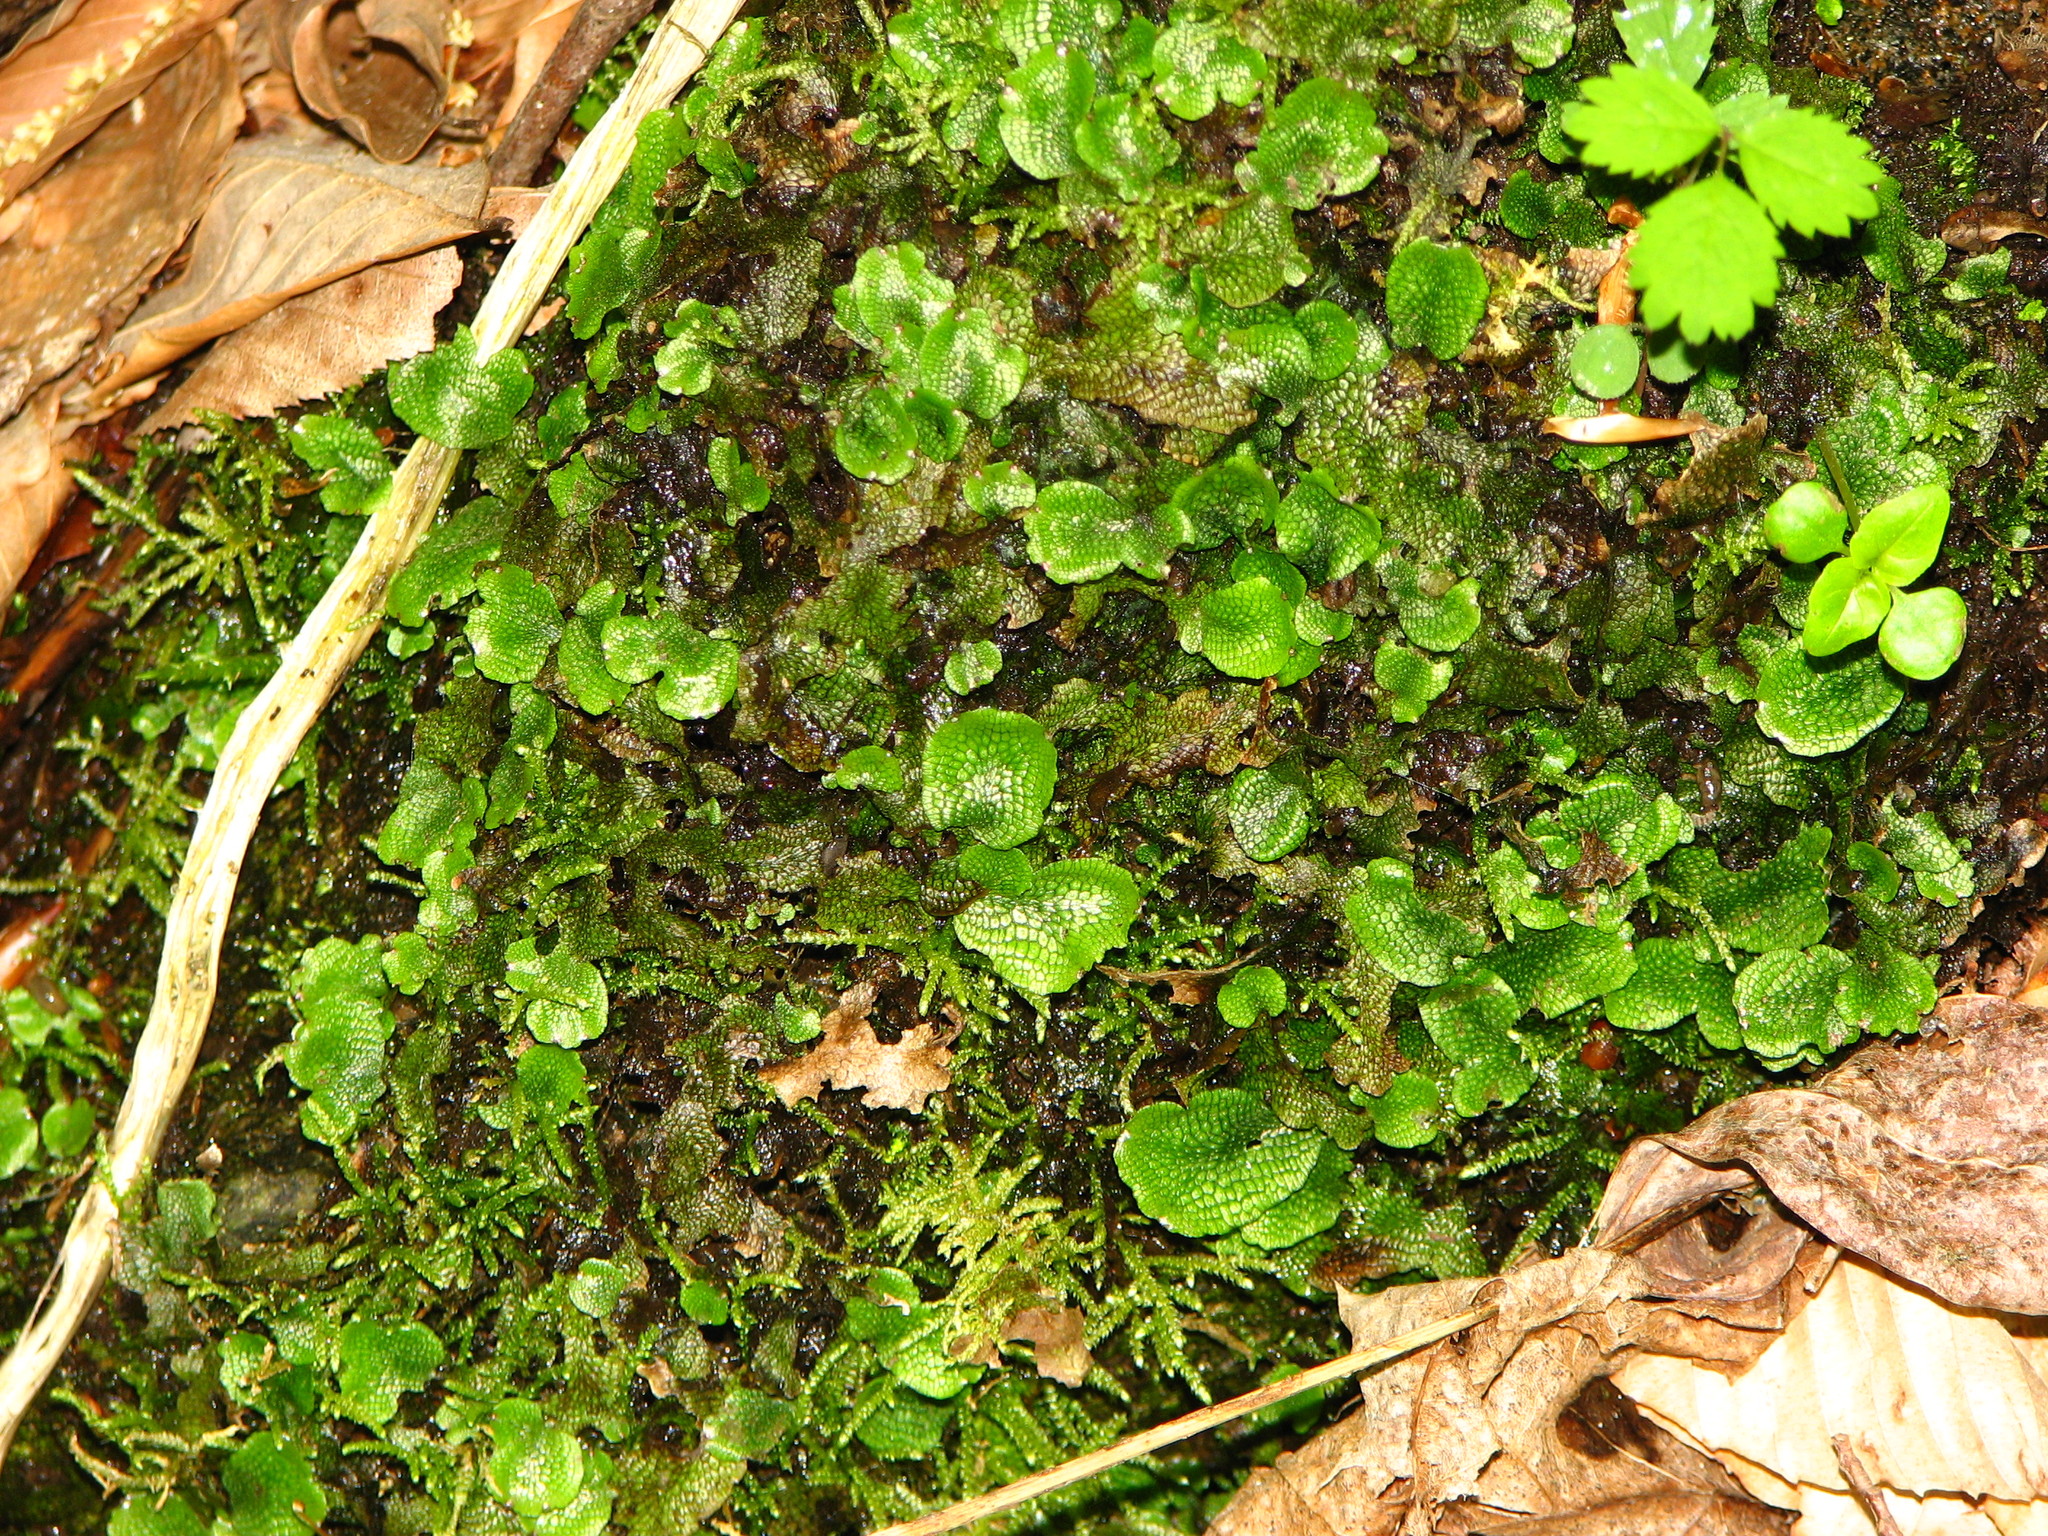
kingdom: Plantae
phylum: Marchantiophyta
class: Marchantiopsida
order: Marchantiales
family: Conocephalaceae
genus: Conocephalum
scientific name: Conocephalum salebrosum
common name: Cat-tongue liverwort
